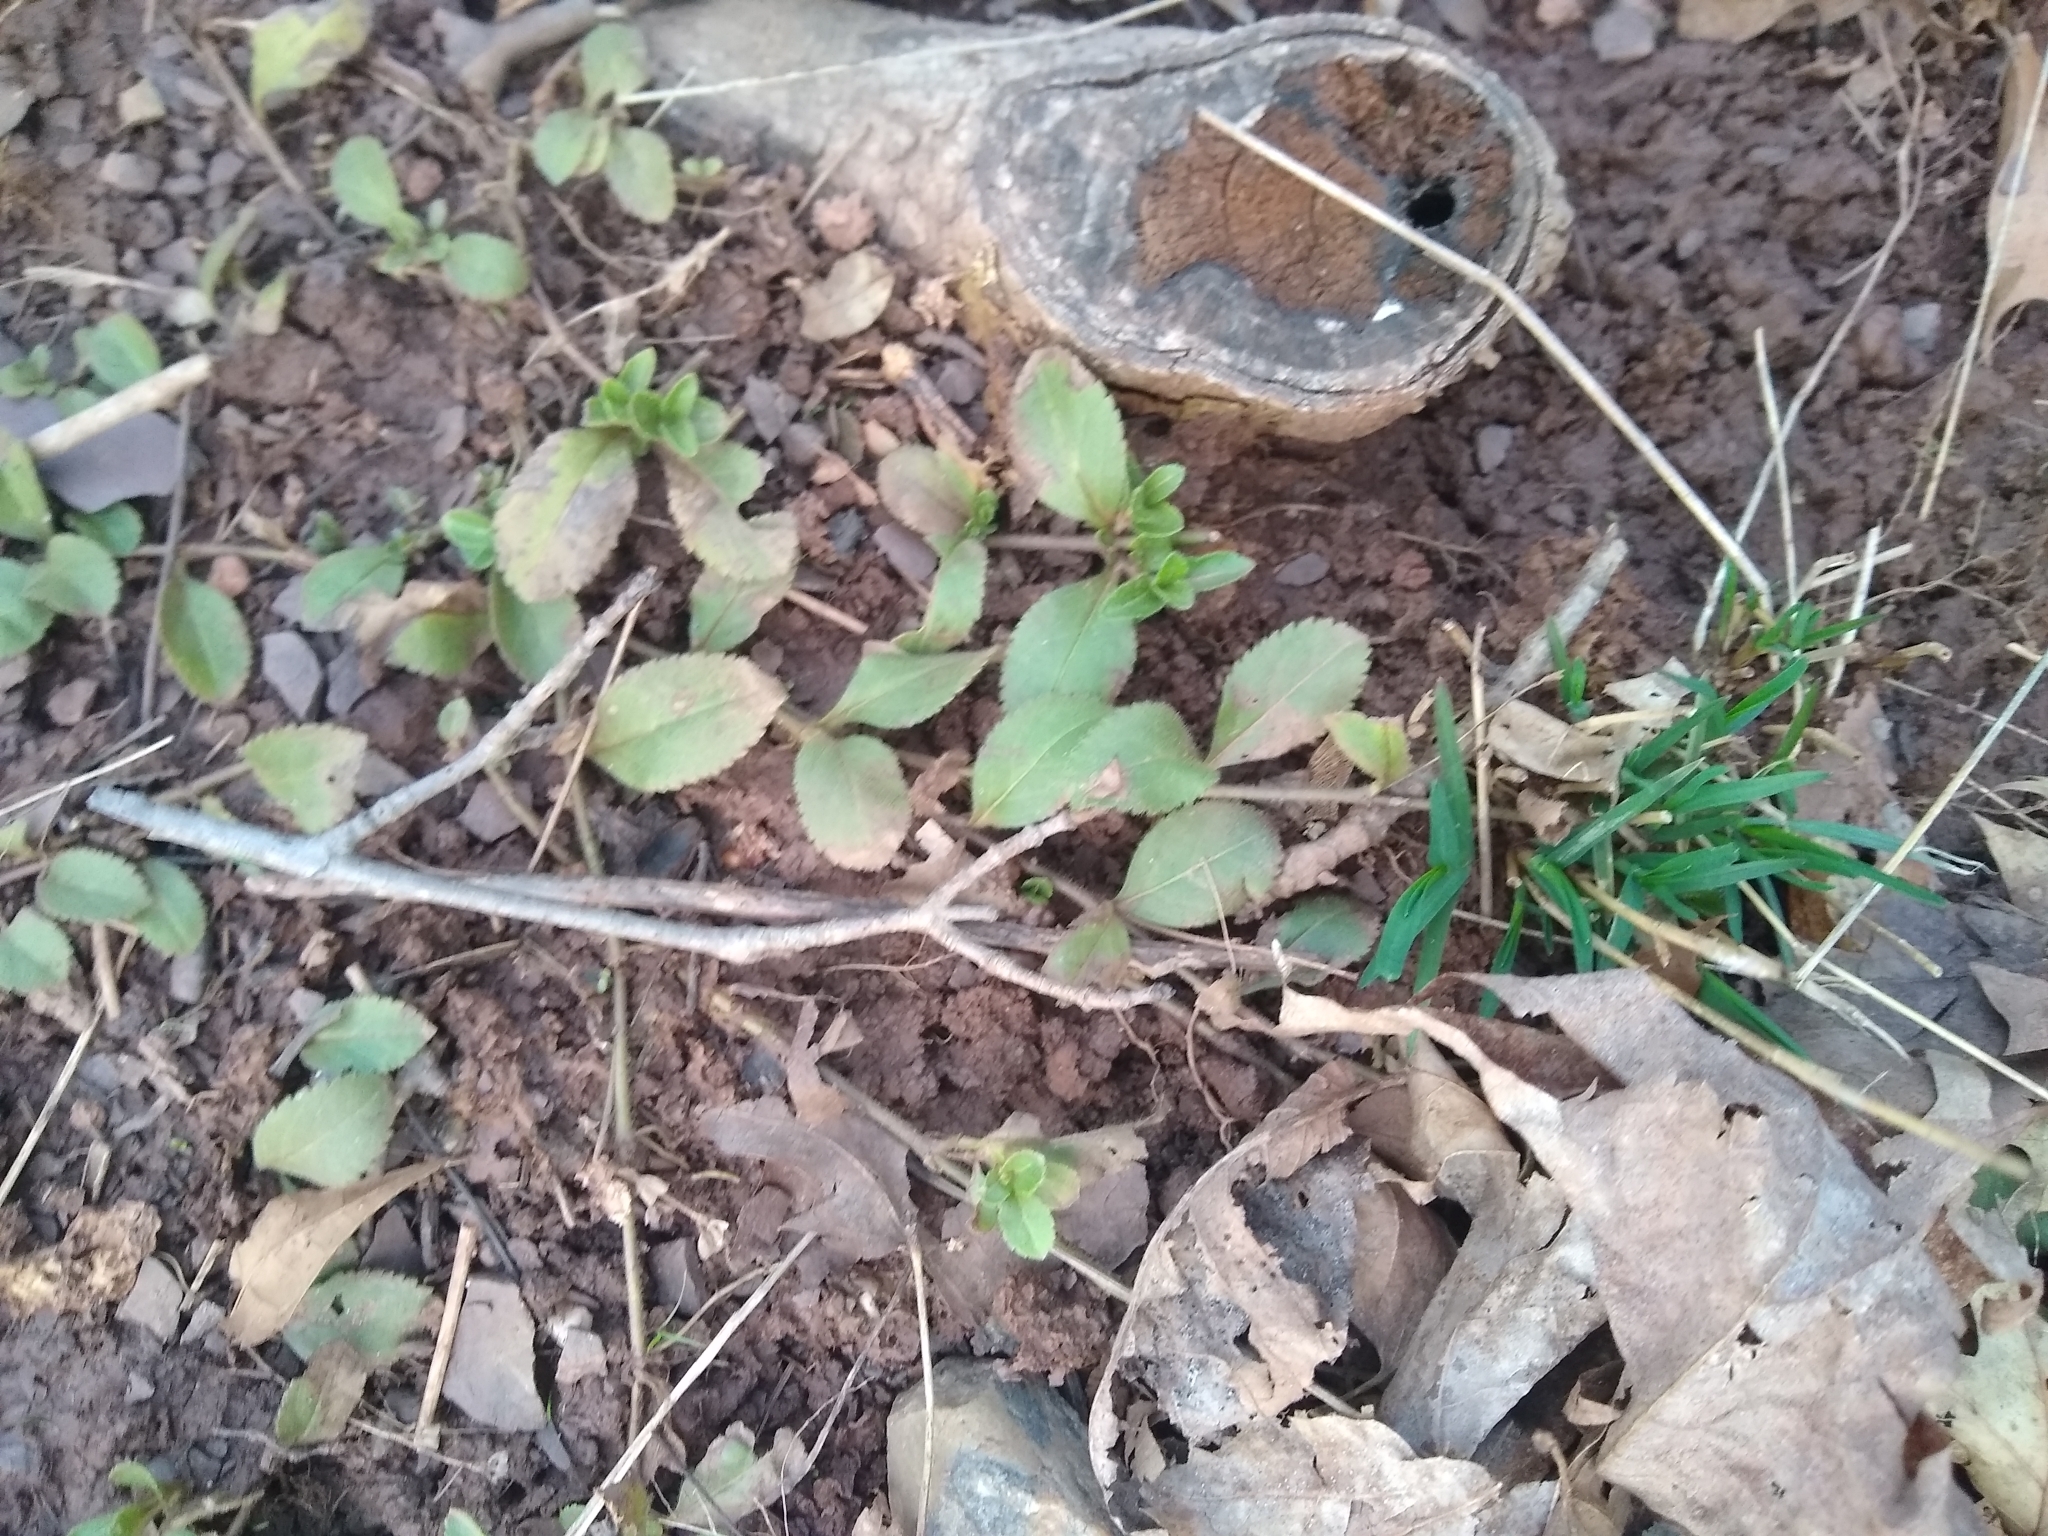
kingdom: Plantae
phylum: Tracheophyta
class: Magnoliopsida
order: Lamiales
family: Plantaginaceae
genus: Veronica
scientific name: Veronica officinalis
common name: Common speedwell
